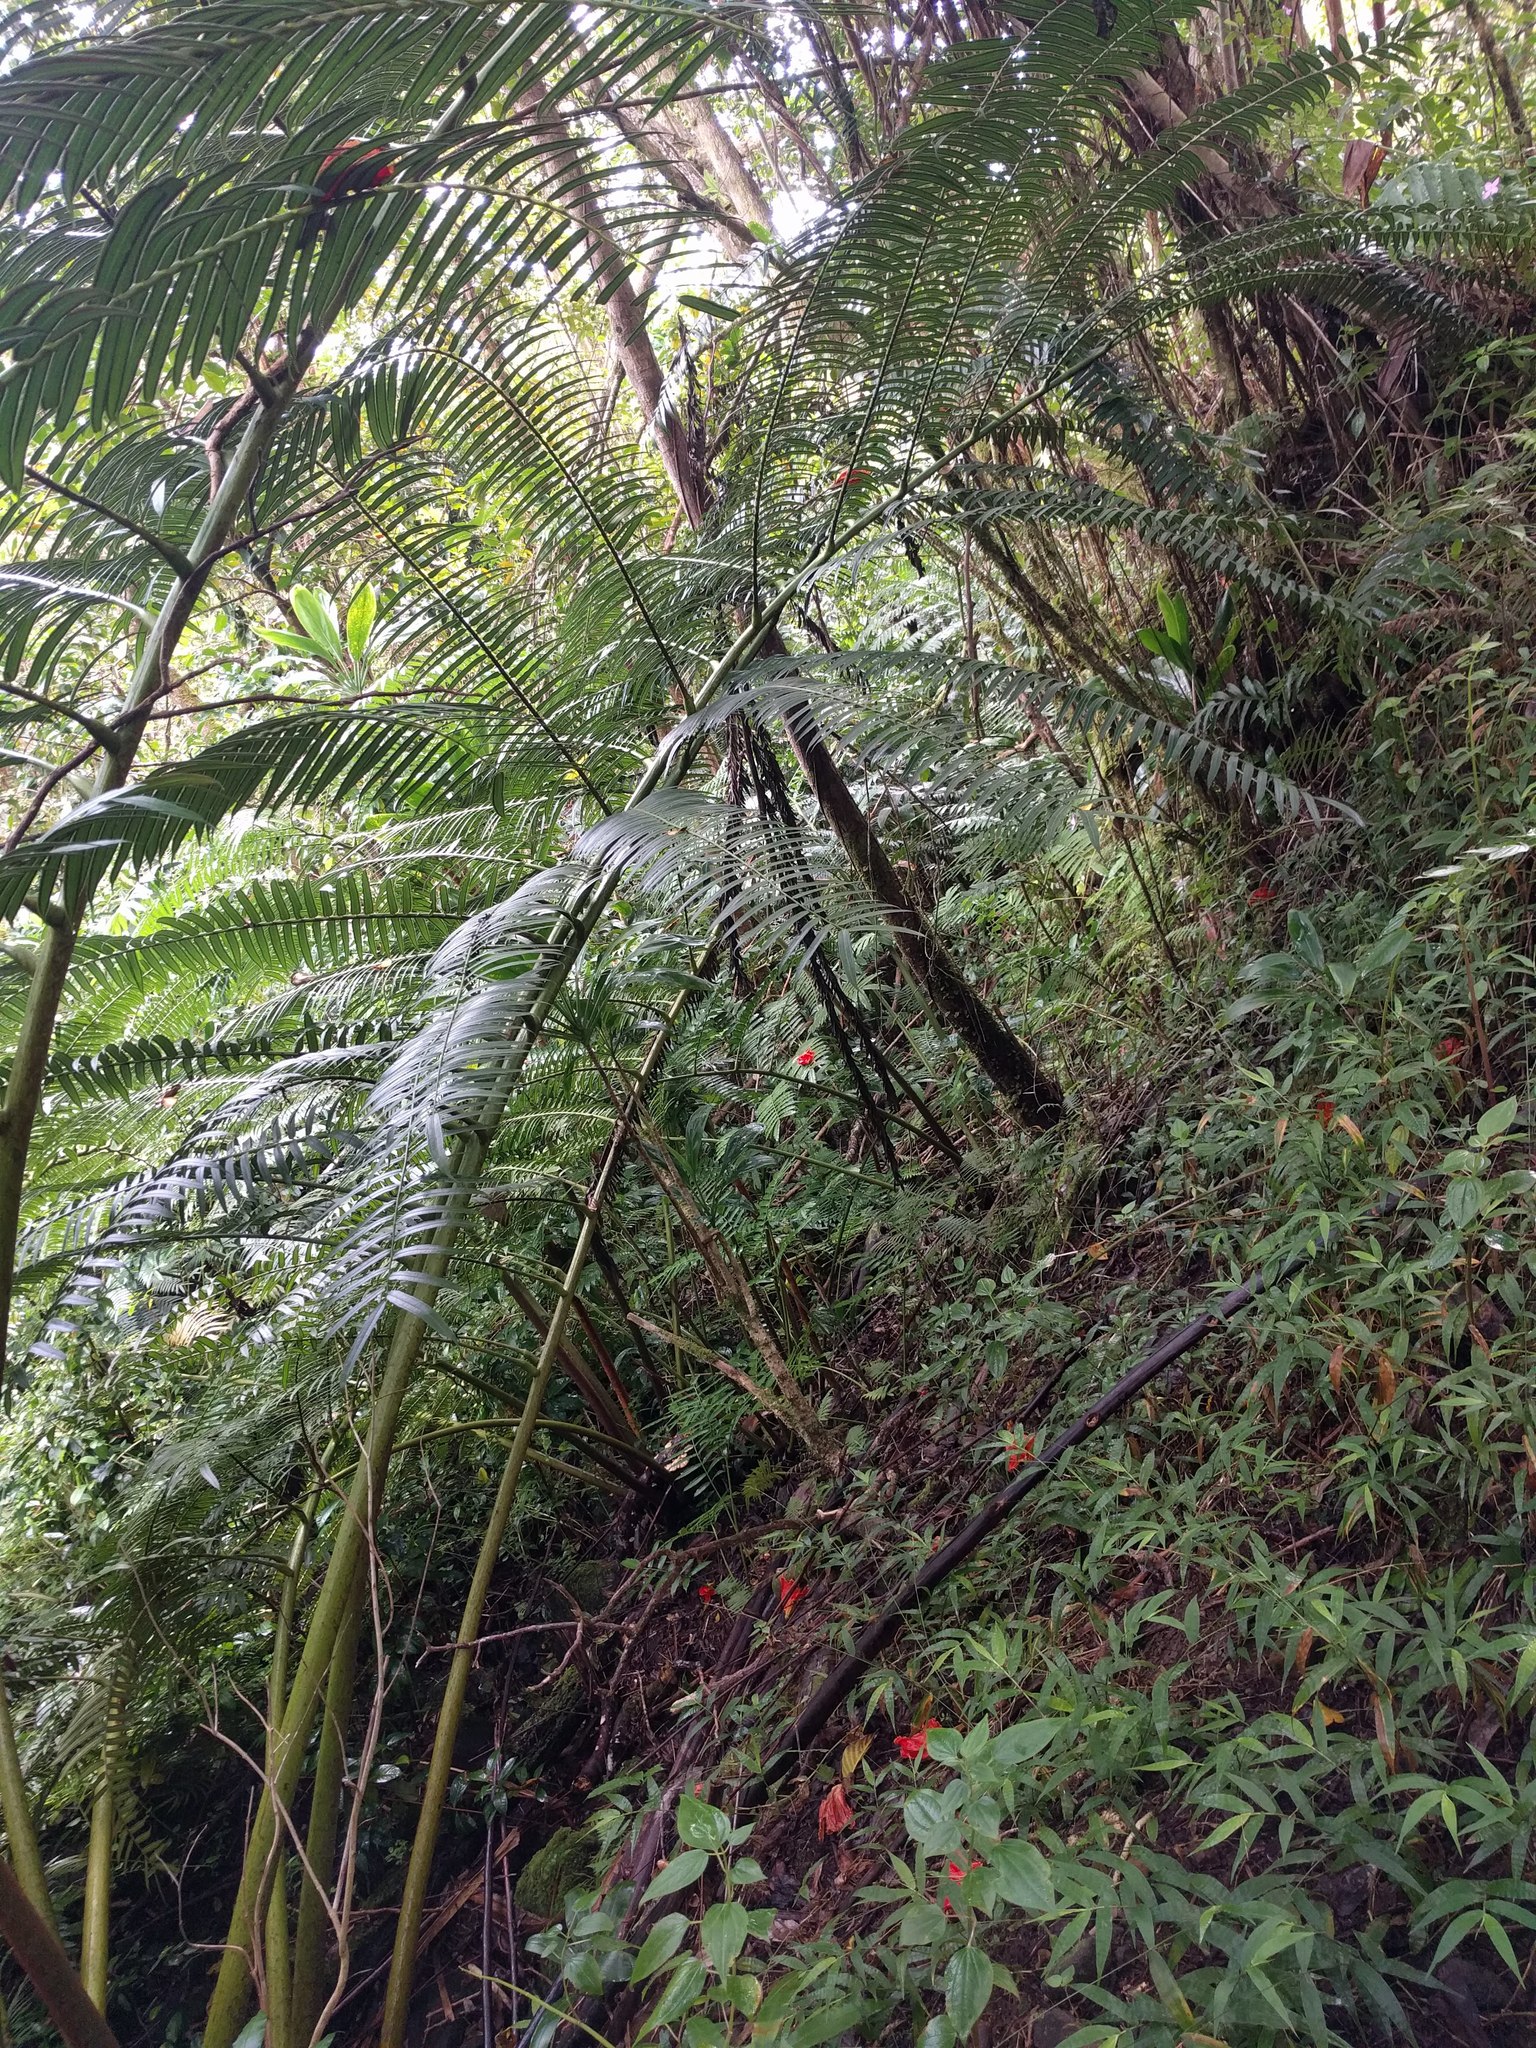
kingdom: Plantae
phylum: Tracheophyta
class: Polypodiopsida
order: Marattiales
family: Marattiaceae
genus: Angiopteris
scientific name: Angiopteris evecta
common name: Mule's-foot fern
